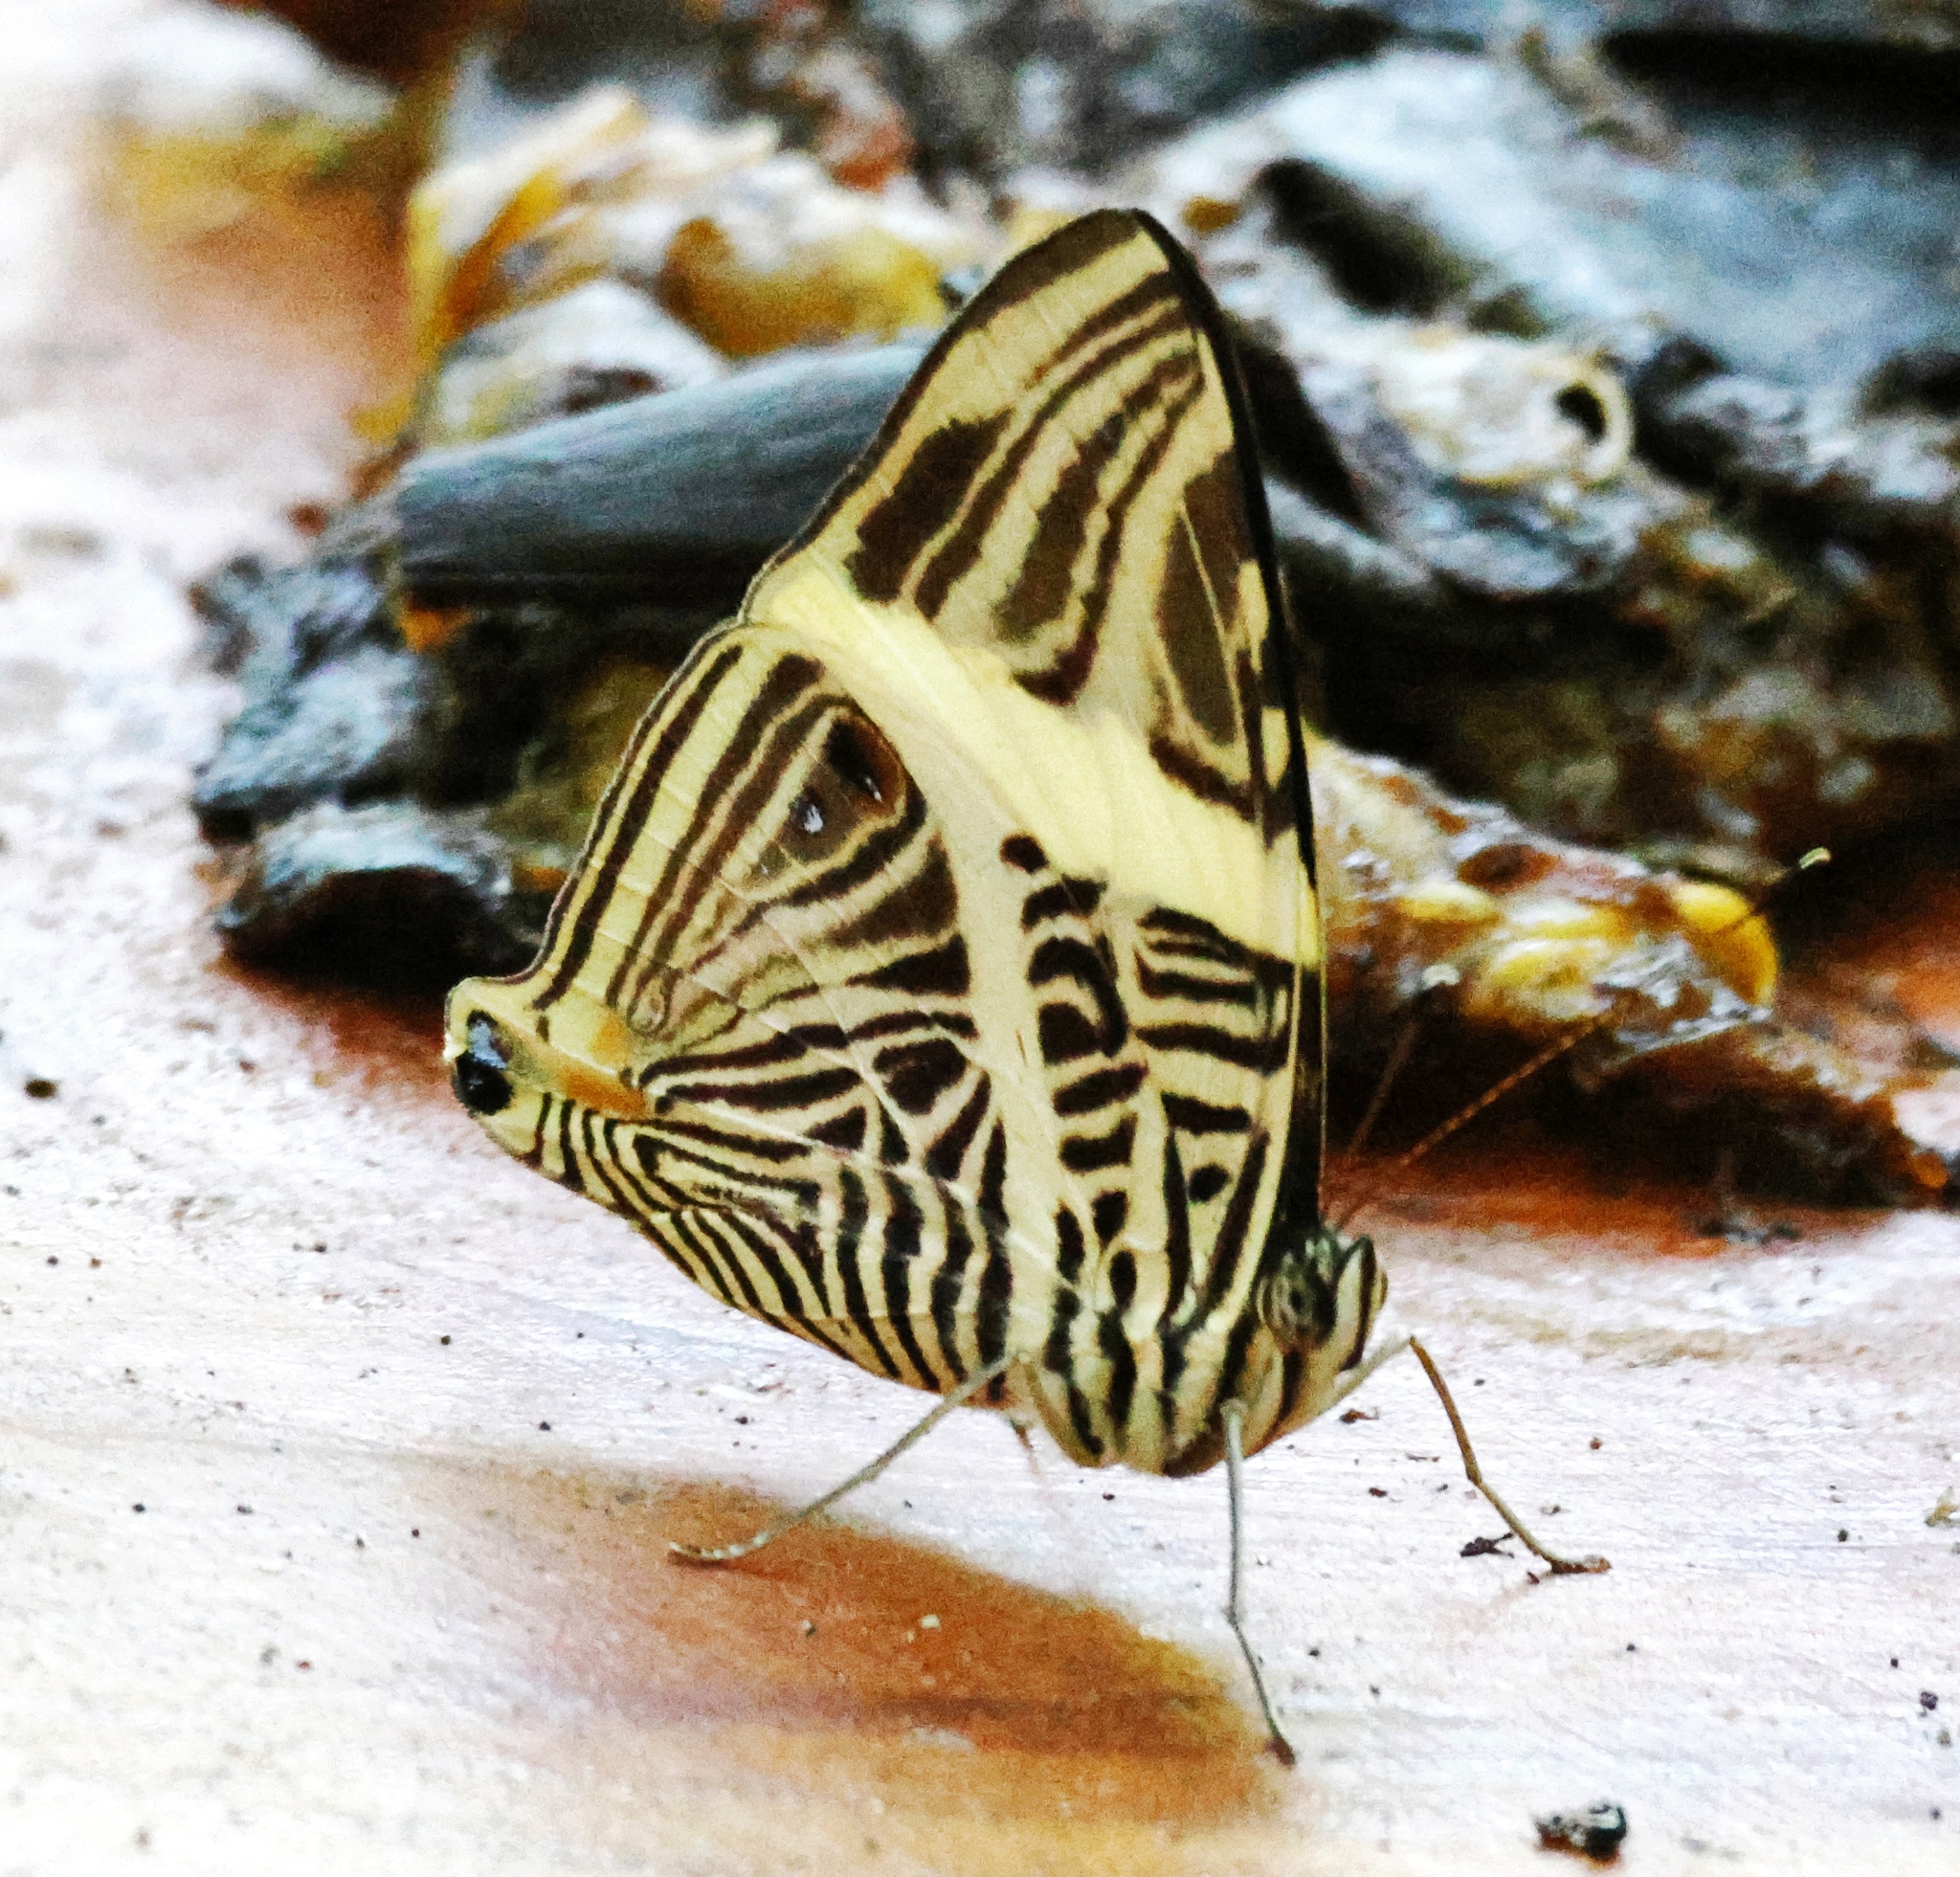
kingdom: Animalia
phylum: Arthropoda
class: Insecta
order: Lepidoptera
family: Nymphalidae
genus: Colobura
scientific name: Colobura dirce
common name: Dirce beauty
